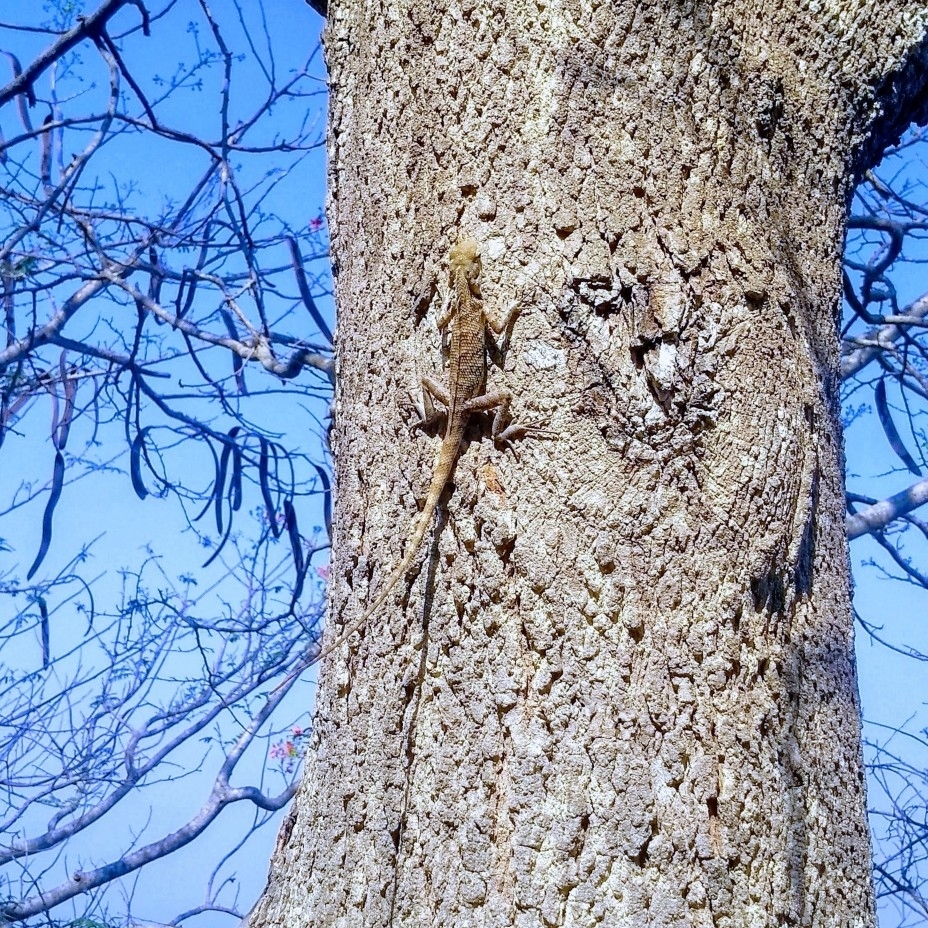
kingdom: Animalia
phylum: Chordata
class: Squamata
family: Agamidae
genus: Calotes
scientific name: Calotes versicolor
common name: Oriental garden lizard
